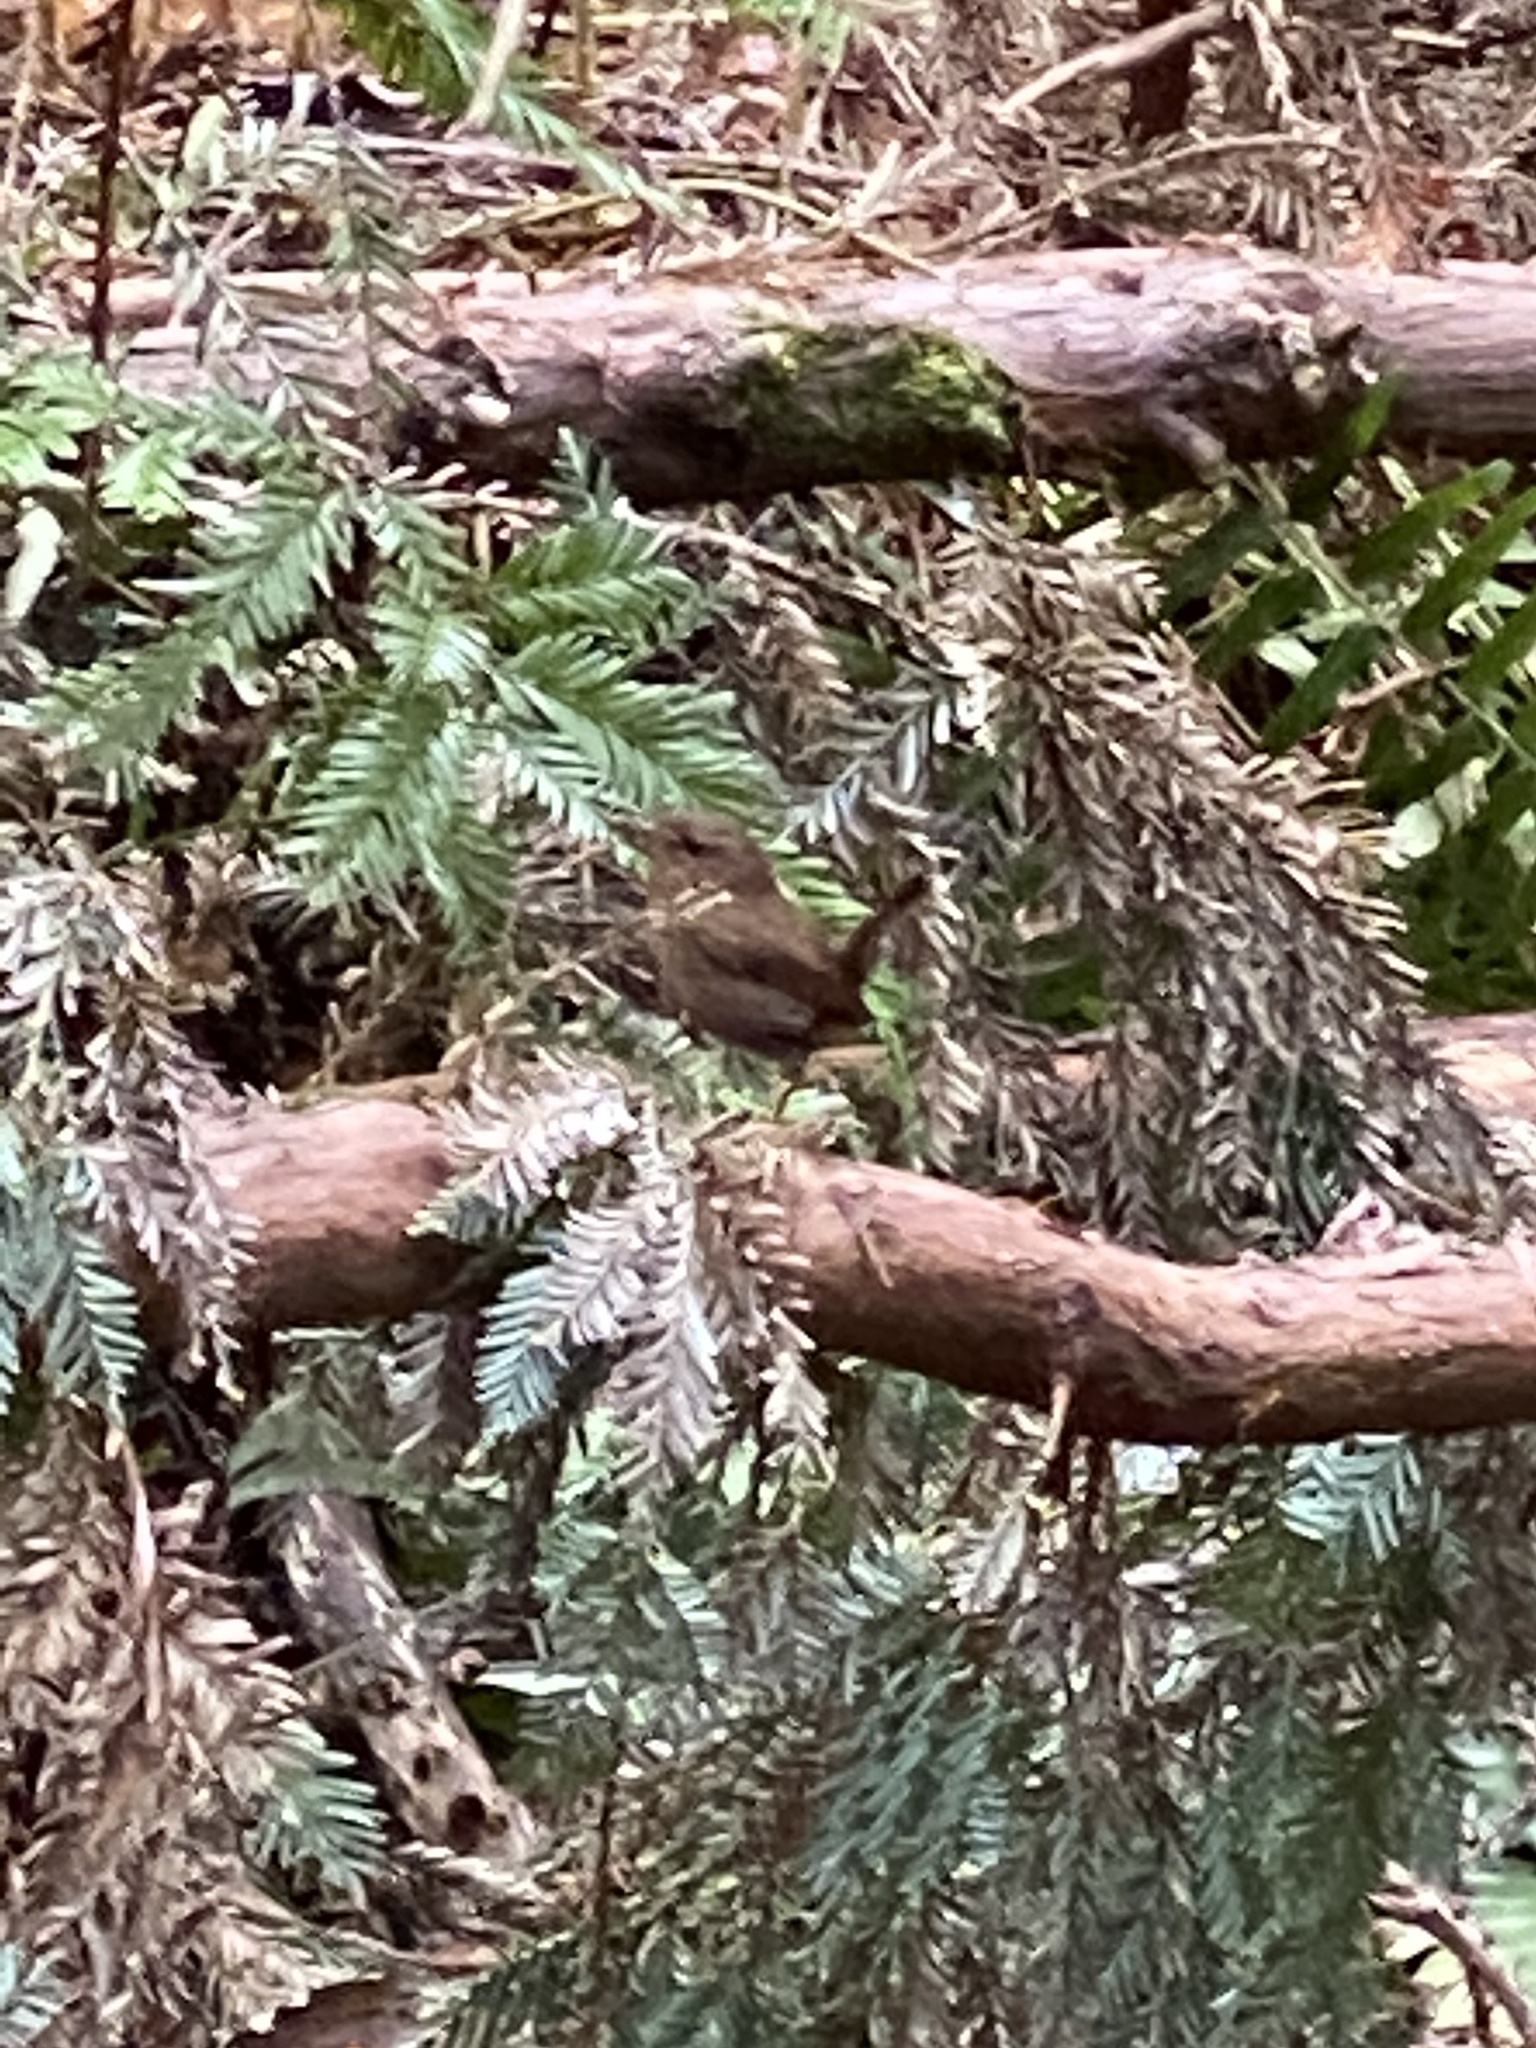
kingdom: Animalia
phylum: Chordata
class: Aves
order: Passeriformes
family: Troglodytidae
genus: Troglodytes
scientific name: Troglodytes pacificus
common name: Pacific wren
